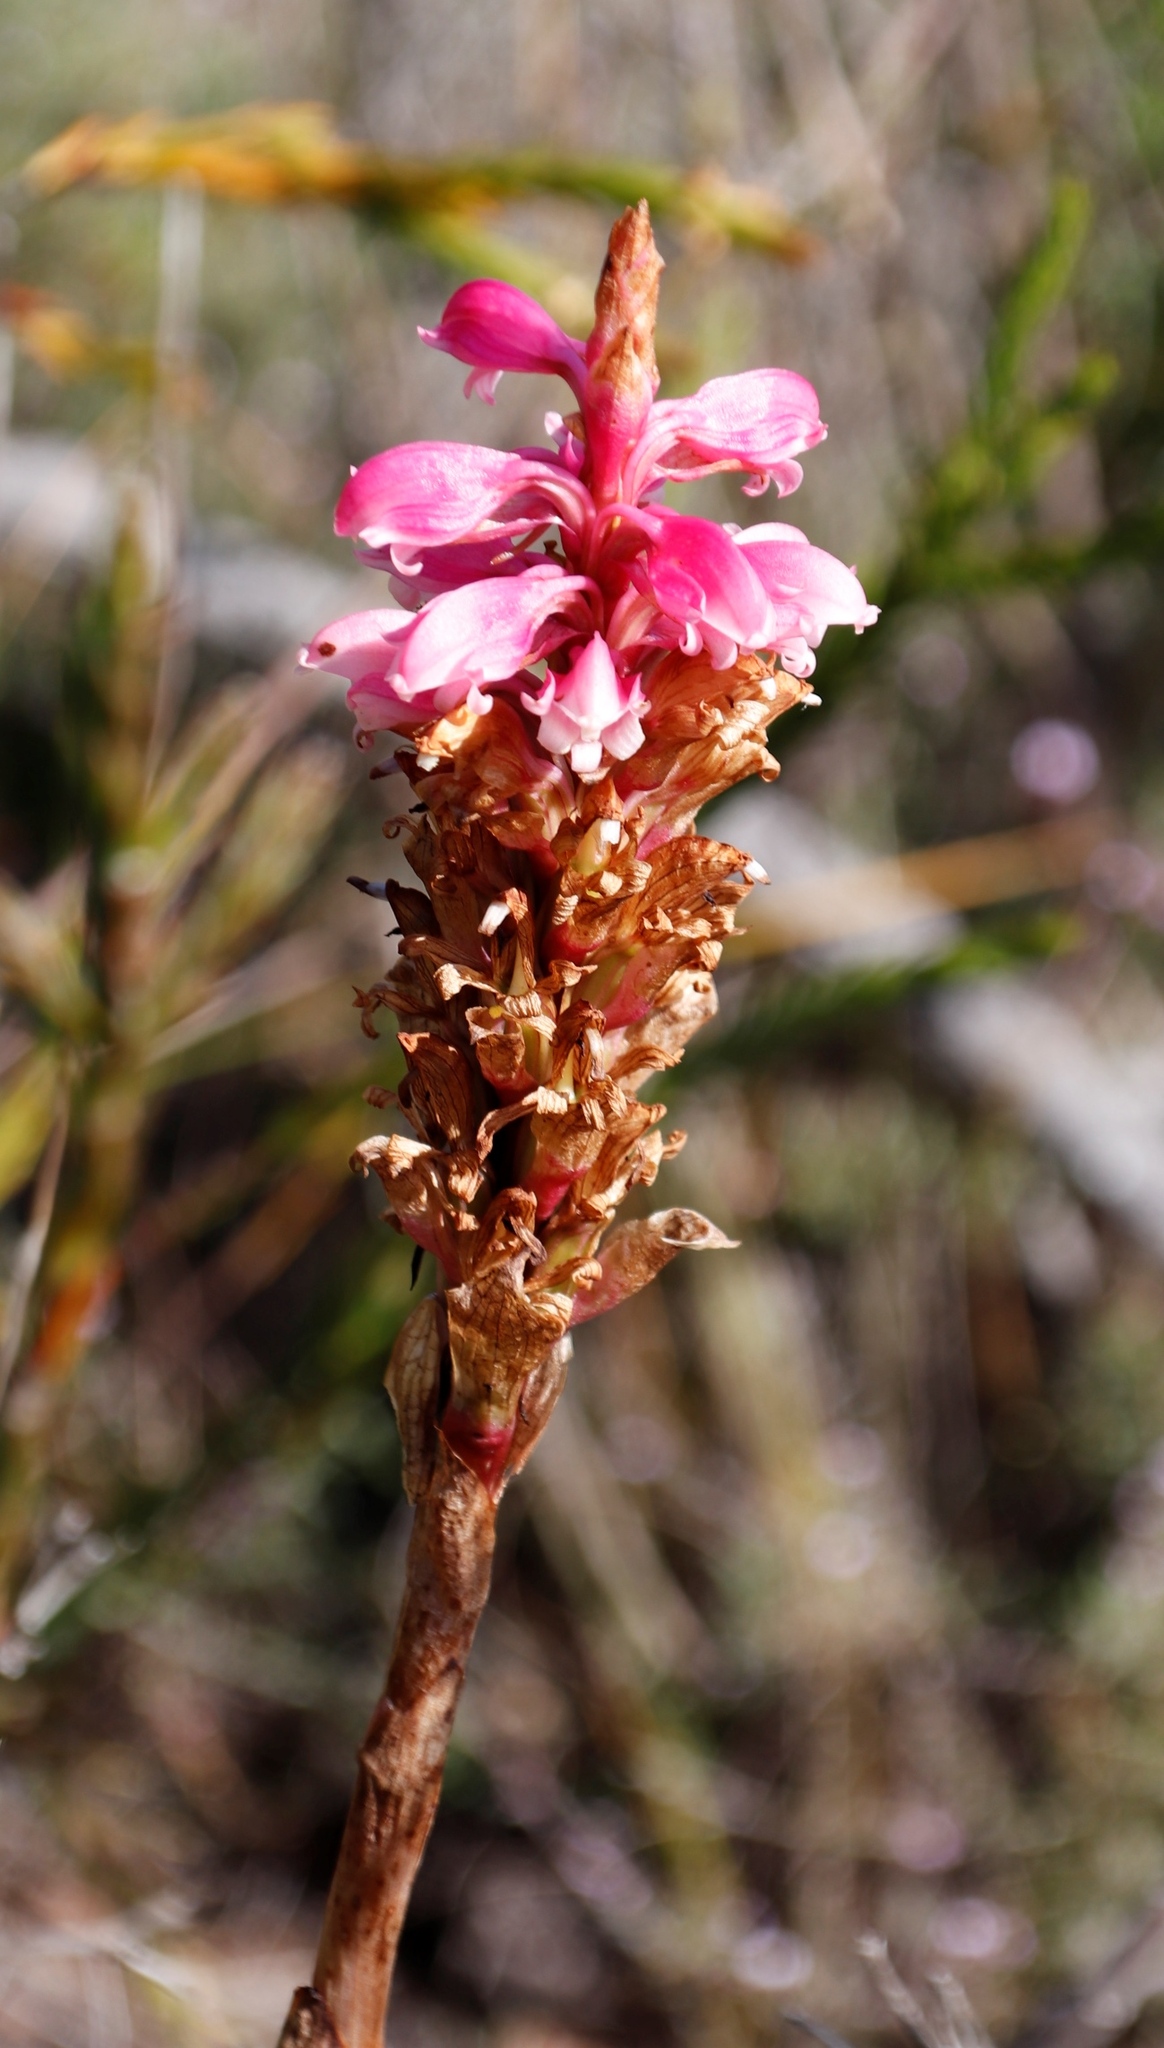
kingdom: Plantae
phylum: Tracheophyta
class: Liliopsida
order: Asparagales
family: Orchidaceae
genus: Satyrium
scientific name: Satyrium carneum
